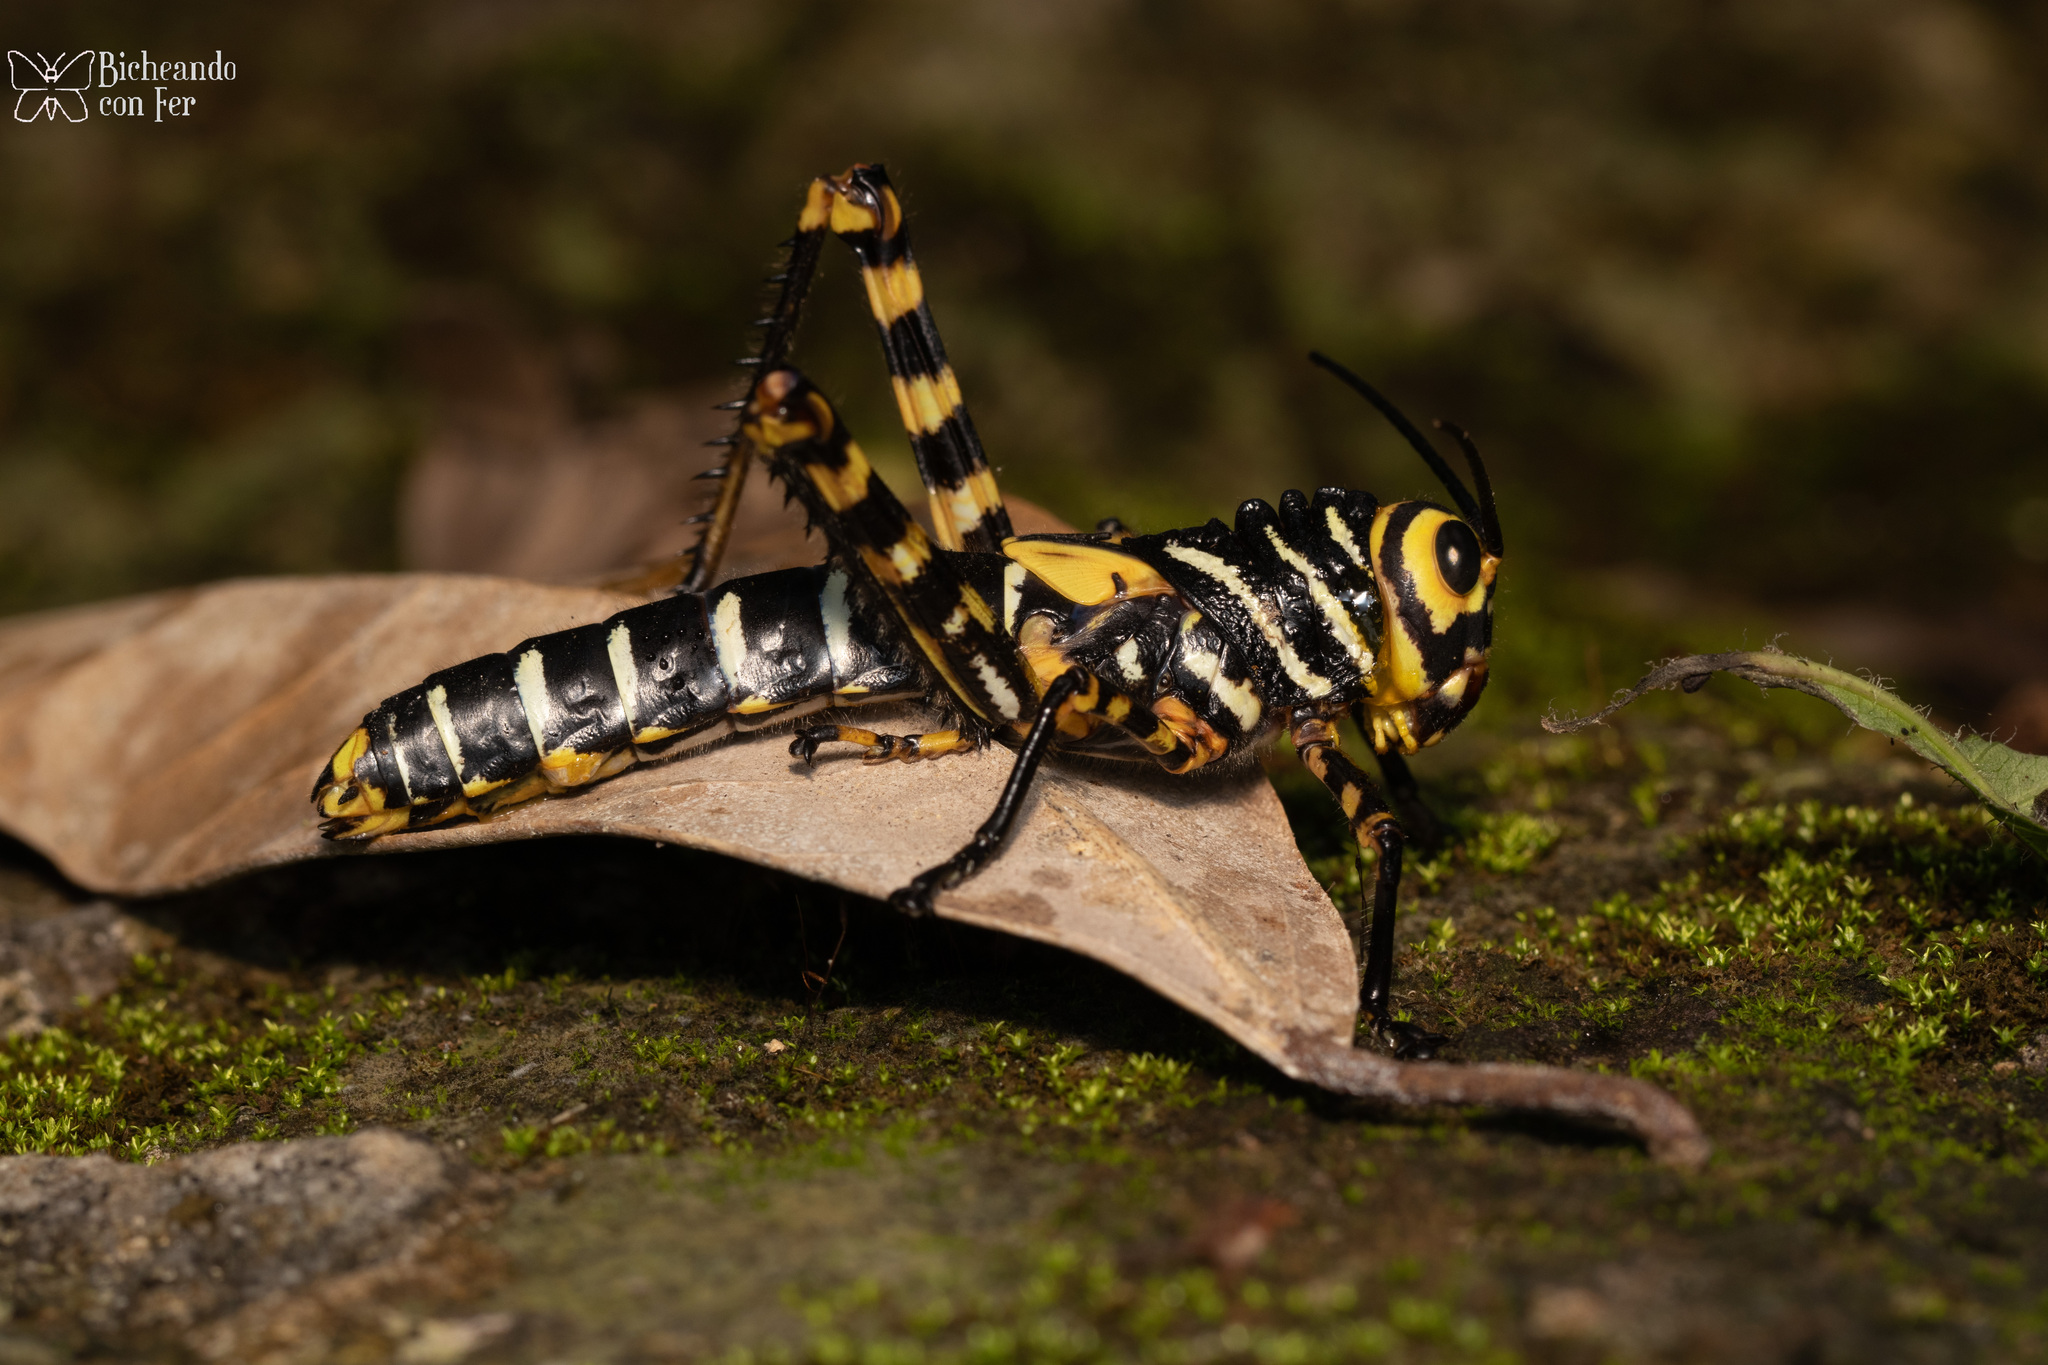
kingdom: Animalia
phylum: Arthropoda
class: Insecta
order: Orthoptera
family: Romaleidae
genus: Tropidacris
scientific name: Tropidacris cristata
